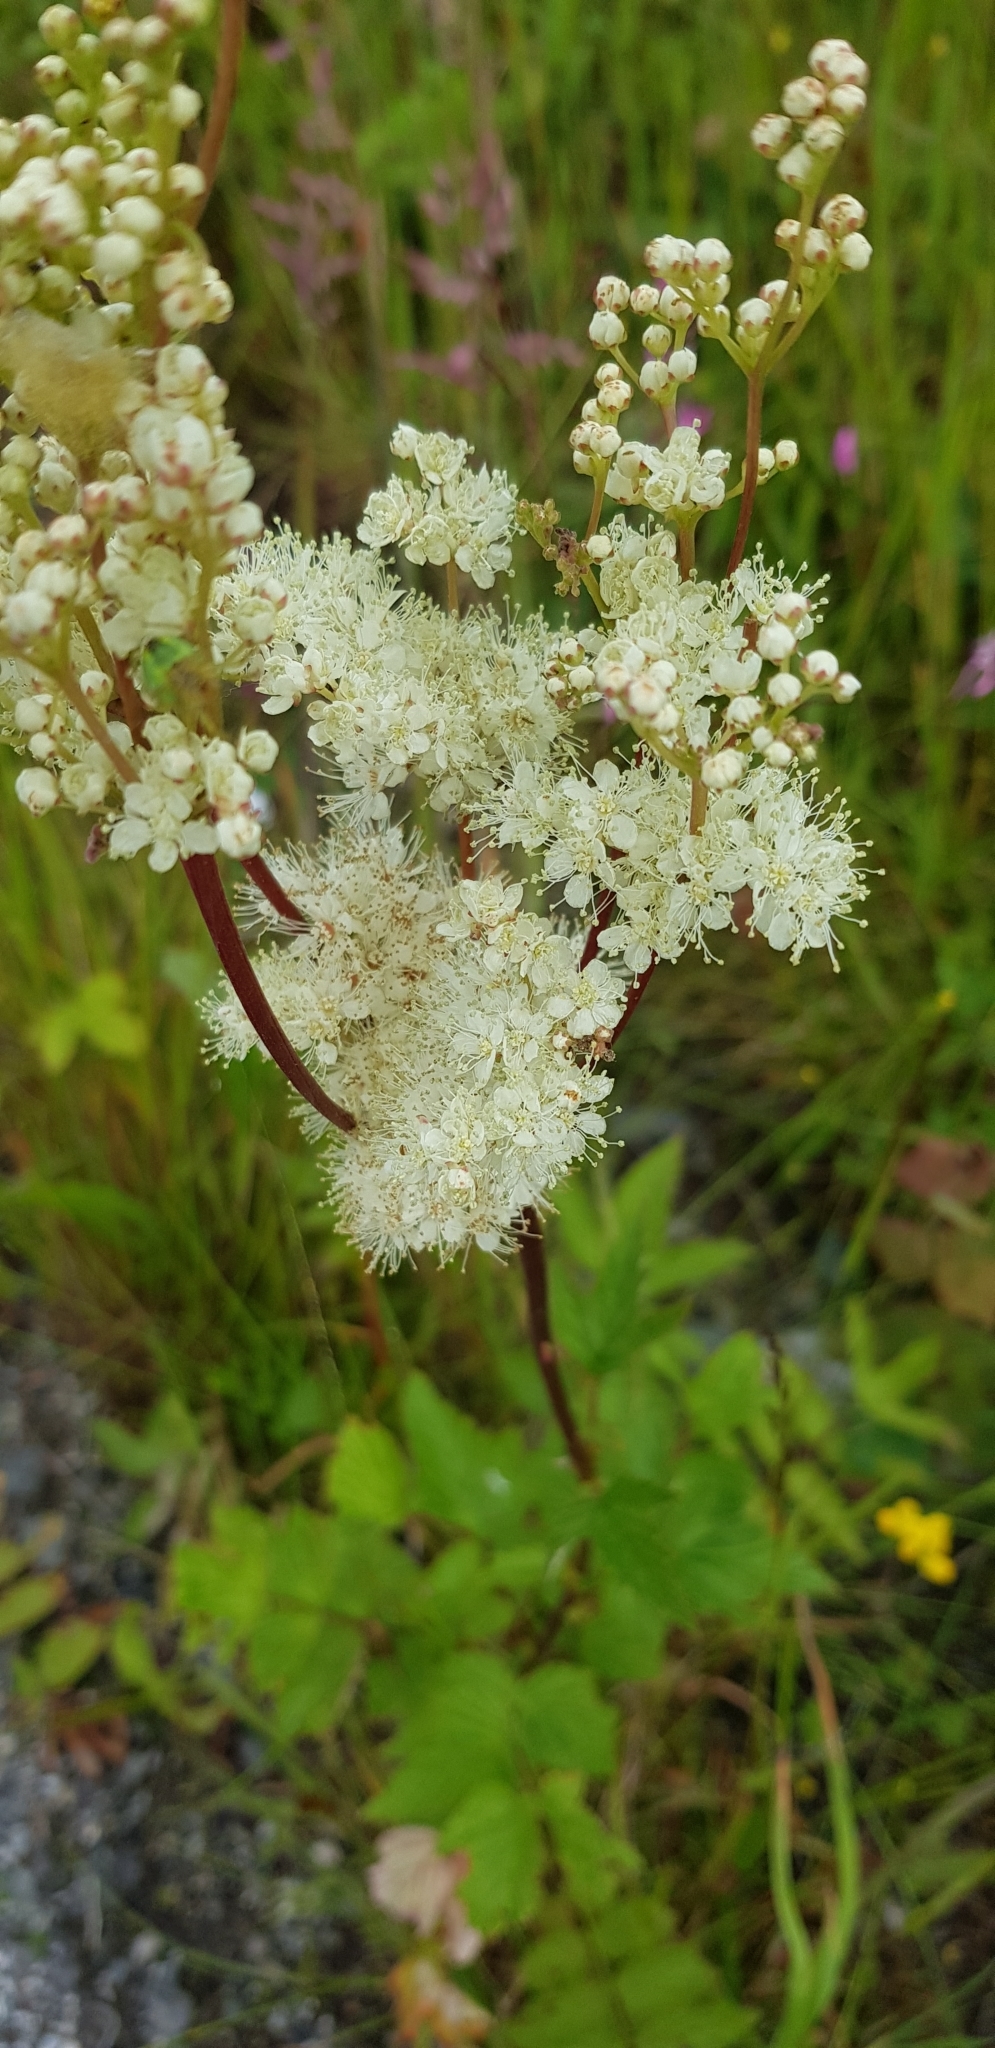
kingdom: Plantae
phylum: Tracheophyta
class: Magnoliopsida
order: Rosales
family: Rosaceae
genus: Filipendula
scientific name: Filipendula ulmaria
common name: Meadowsweet
